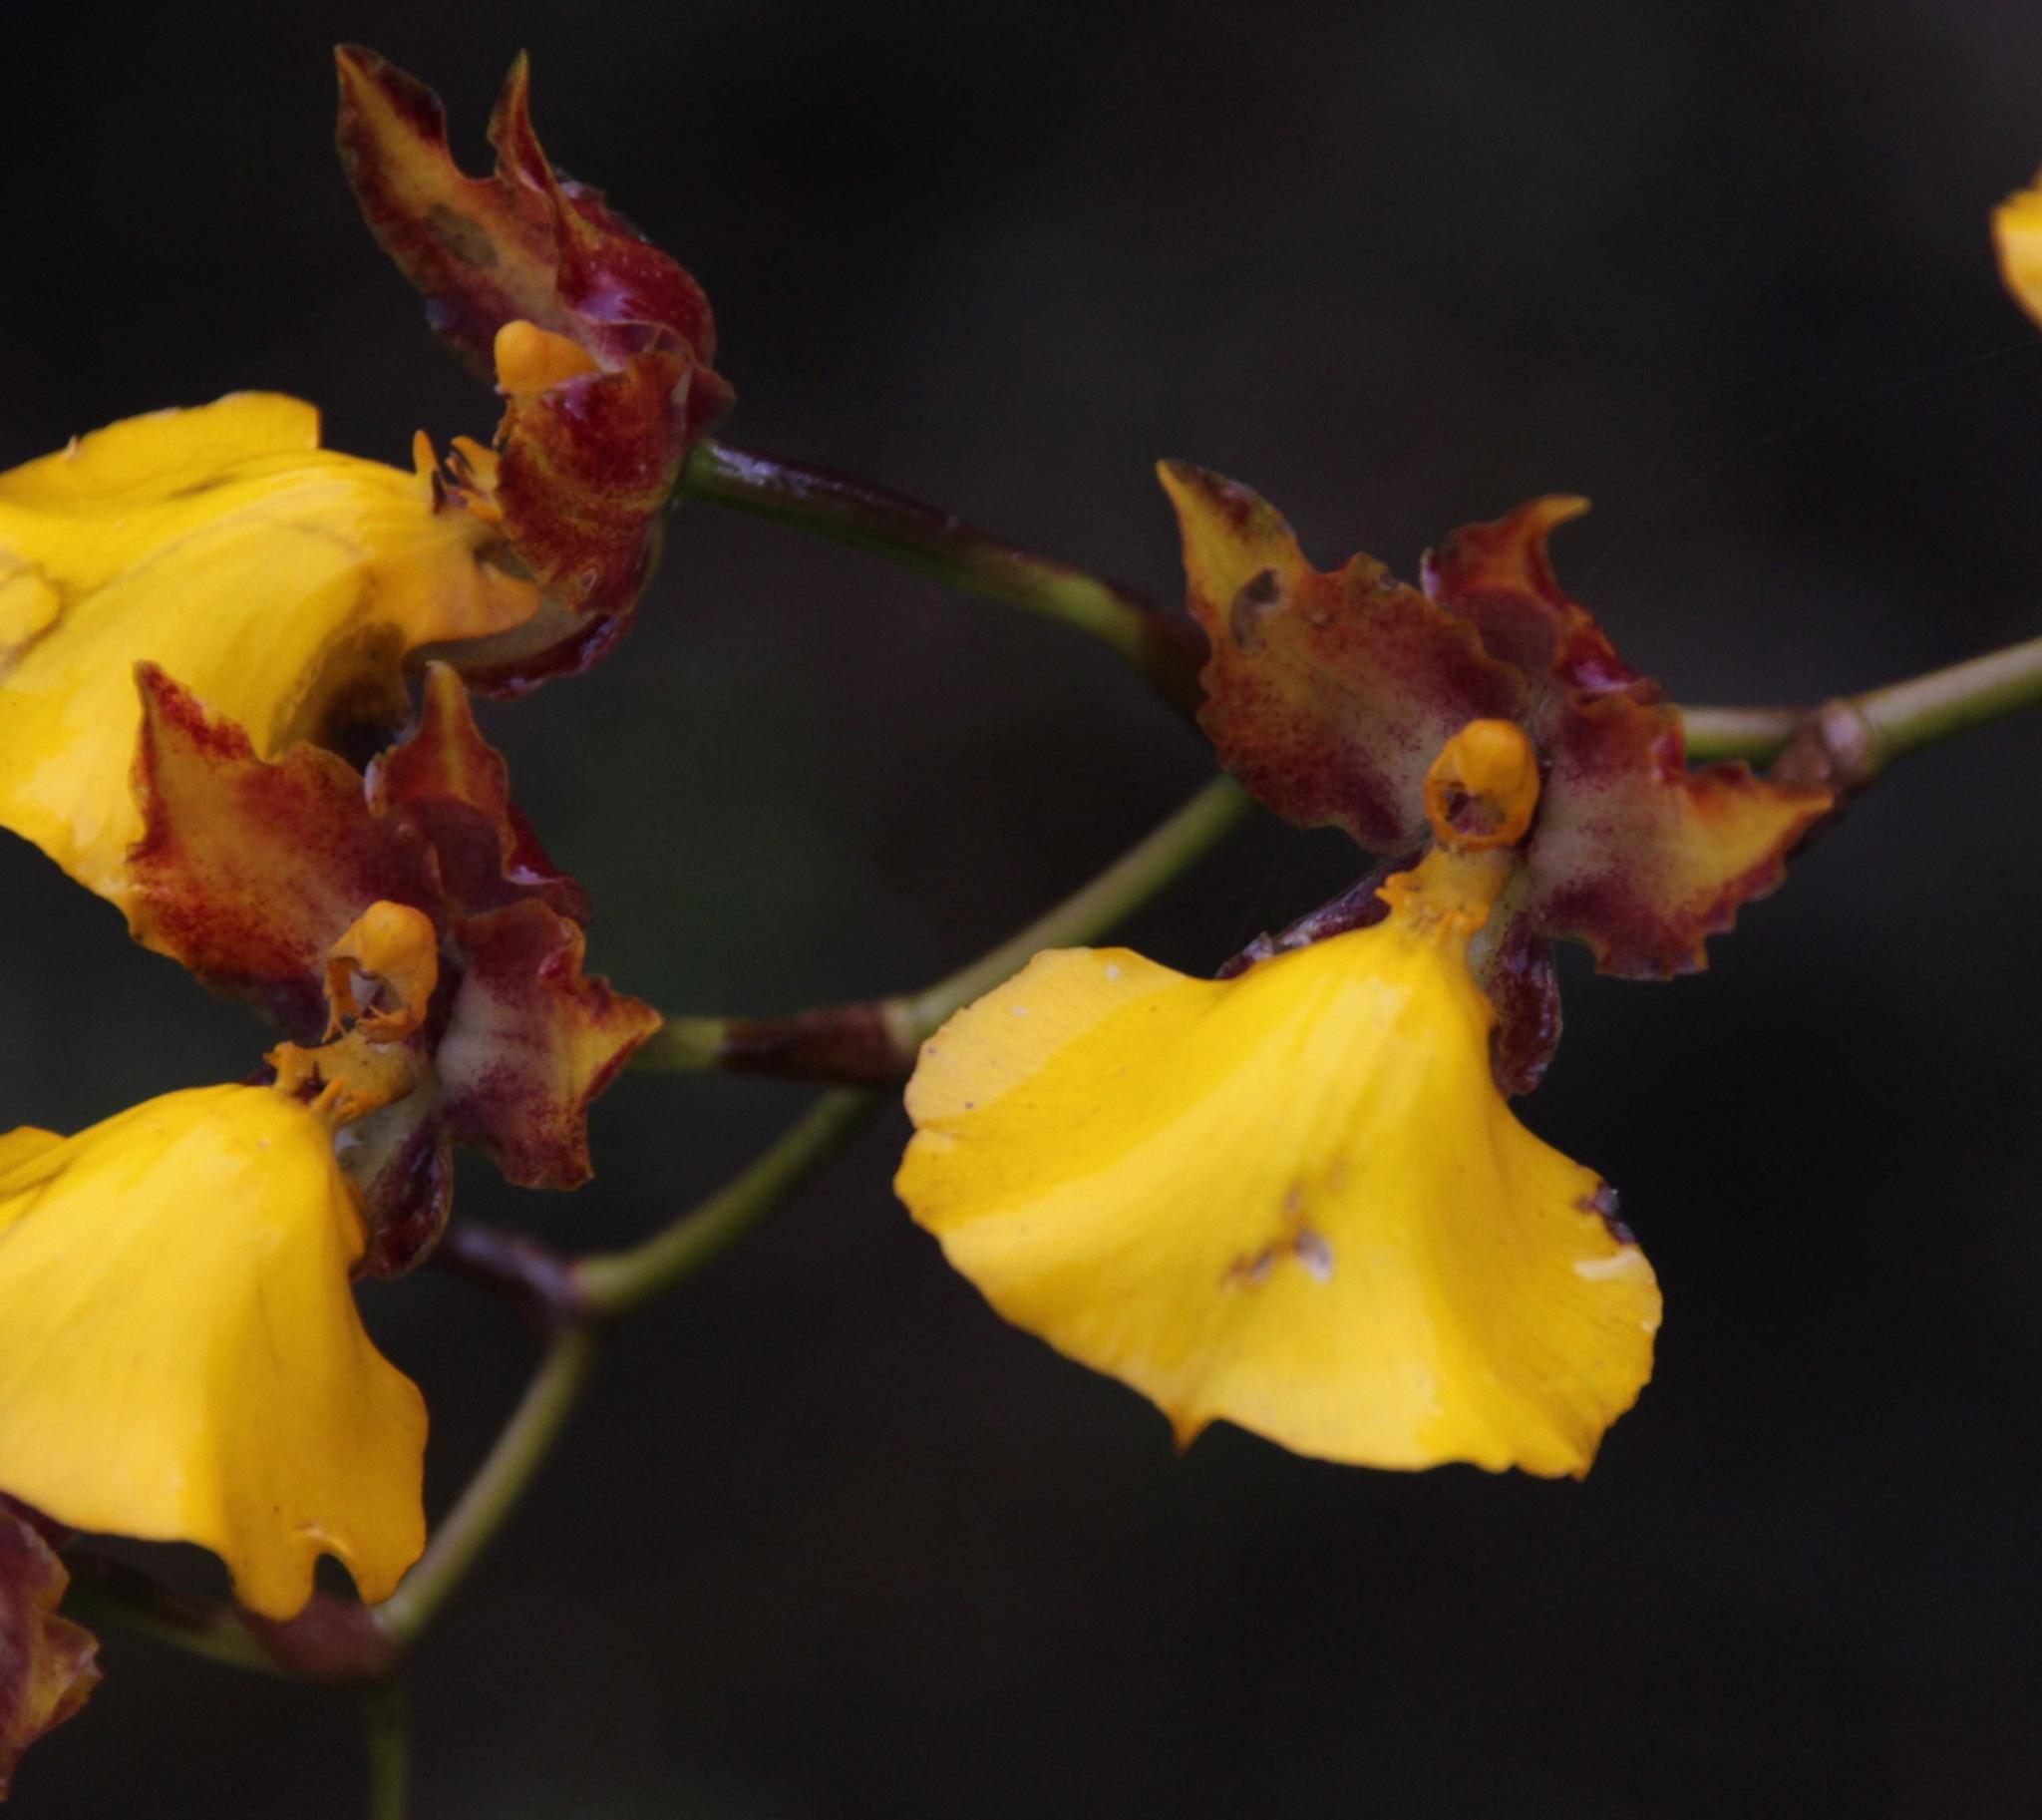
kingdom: Plantae
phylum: Tracheophyta
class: Liliopsida
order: Asparagales
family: Orchidaceae
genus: Cyrtochilum
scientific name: Cyrtochilum aureum
